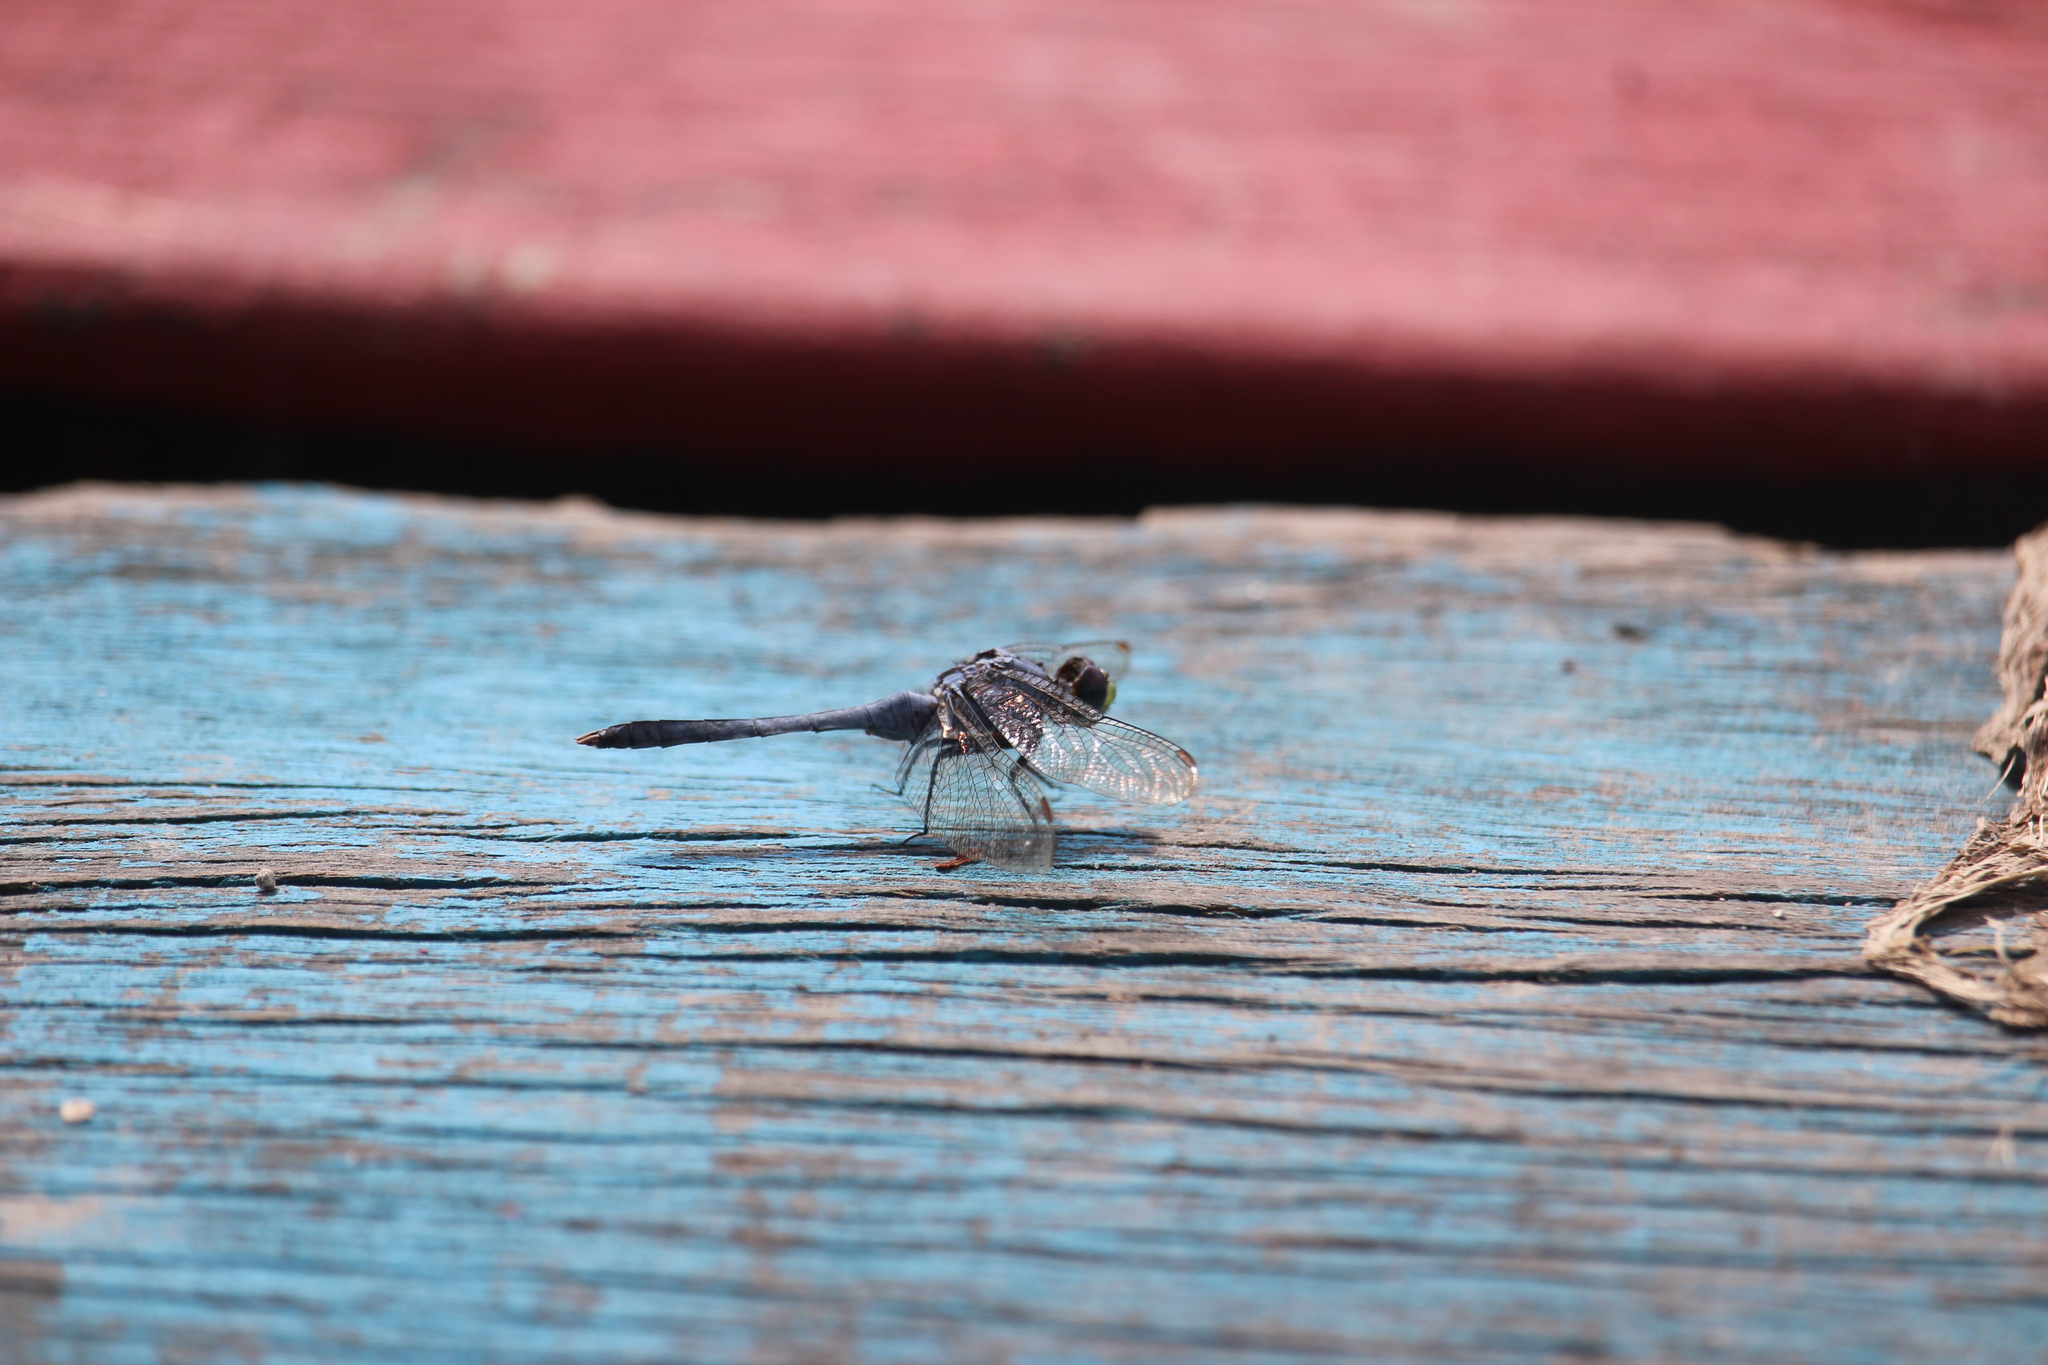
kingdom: Animalia
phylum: Arthropoda
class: Insecta
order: Odonata
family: Libellulidae
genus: Erythemis
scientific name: Erythemis simplicicollis
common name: Eastern pondhawk
